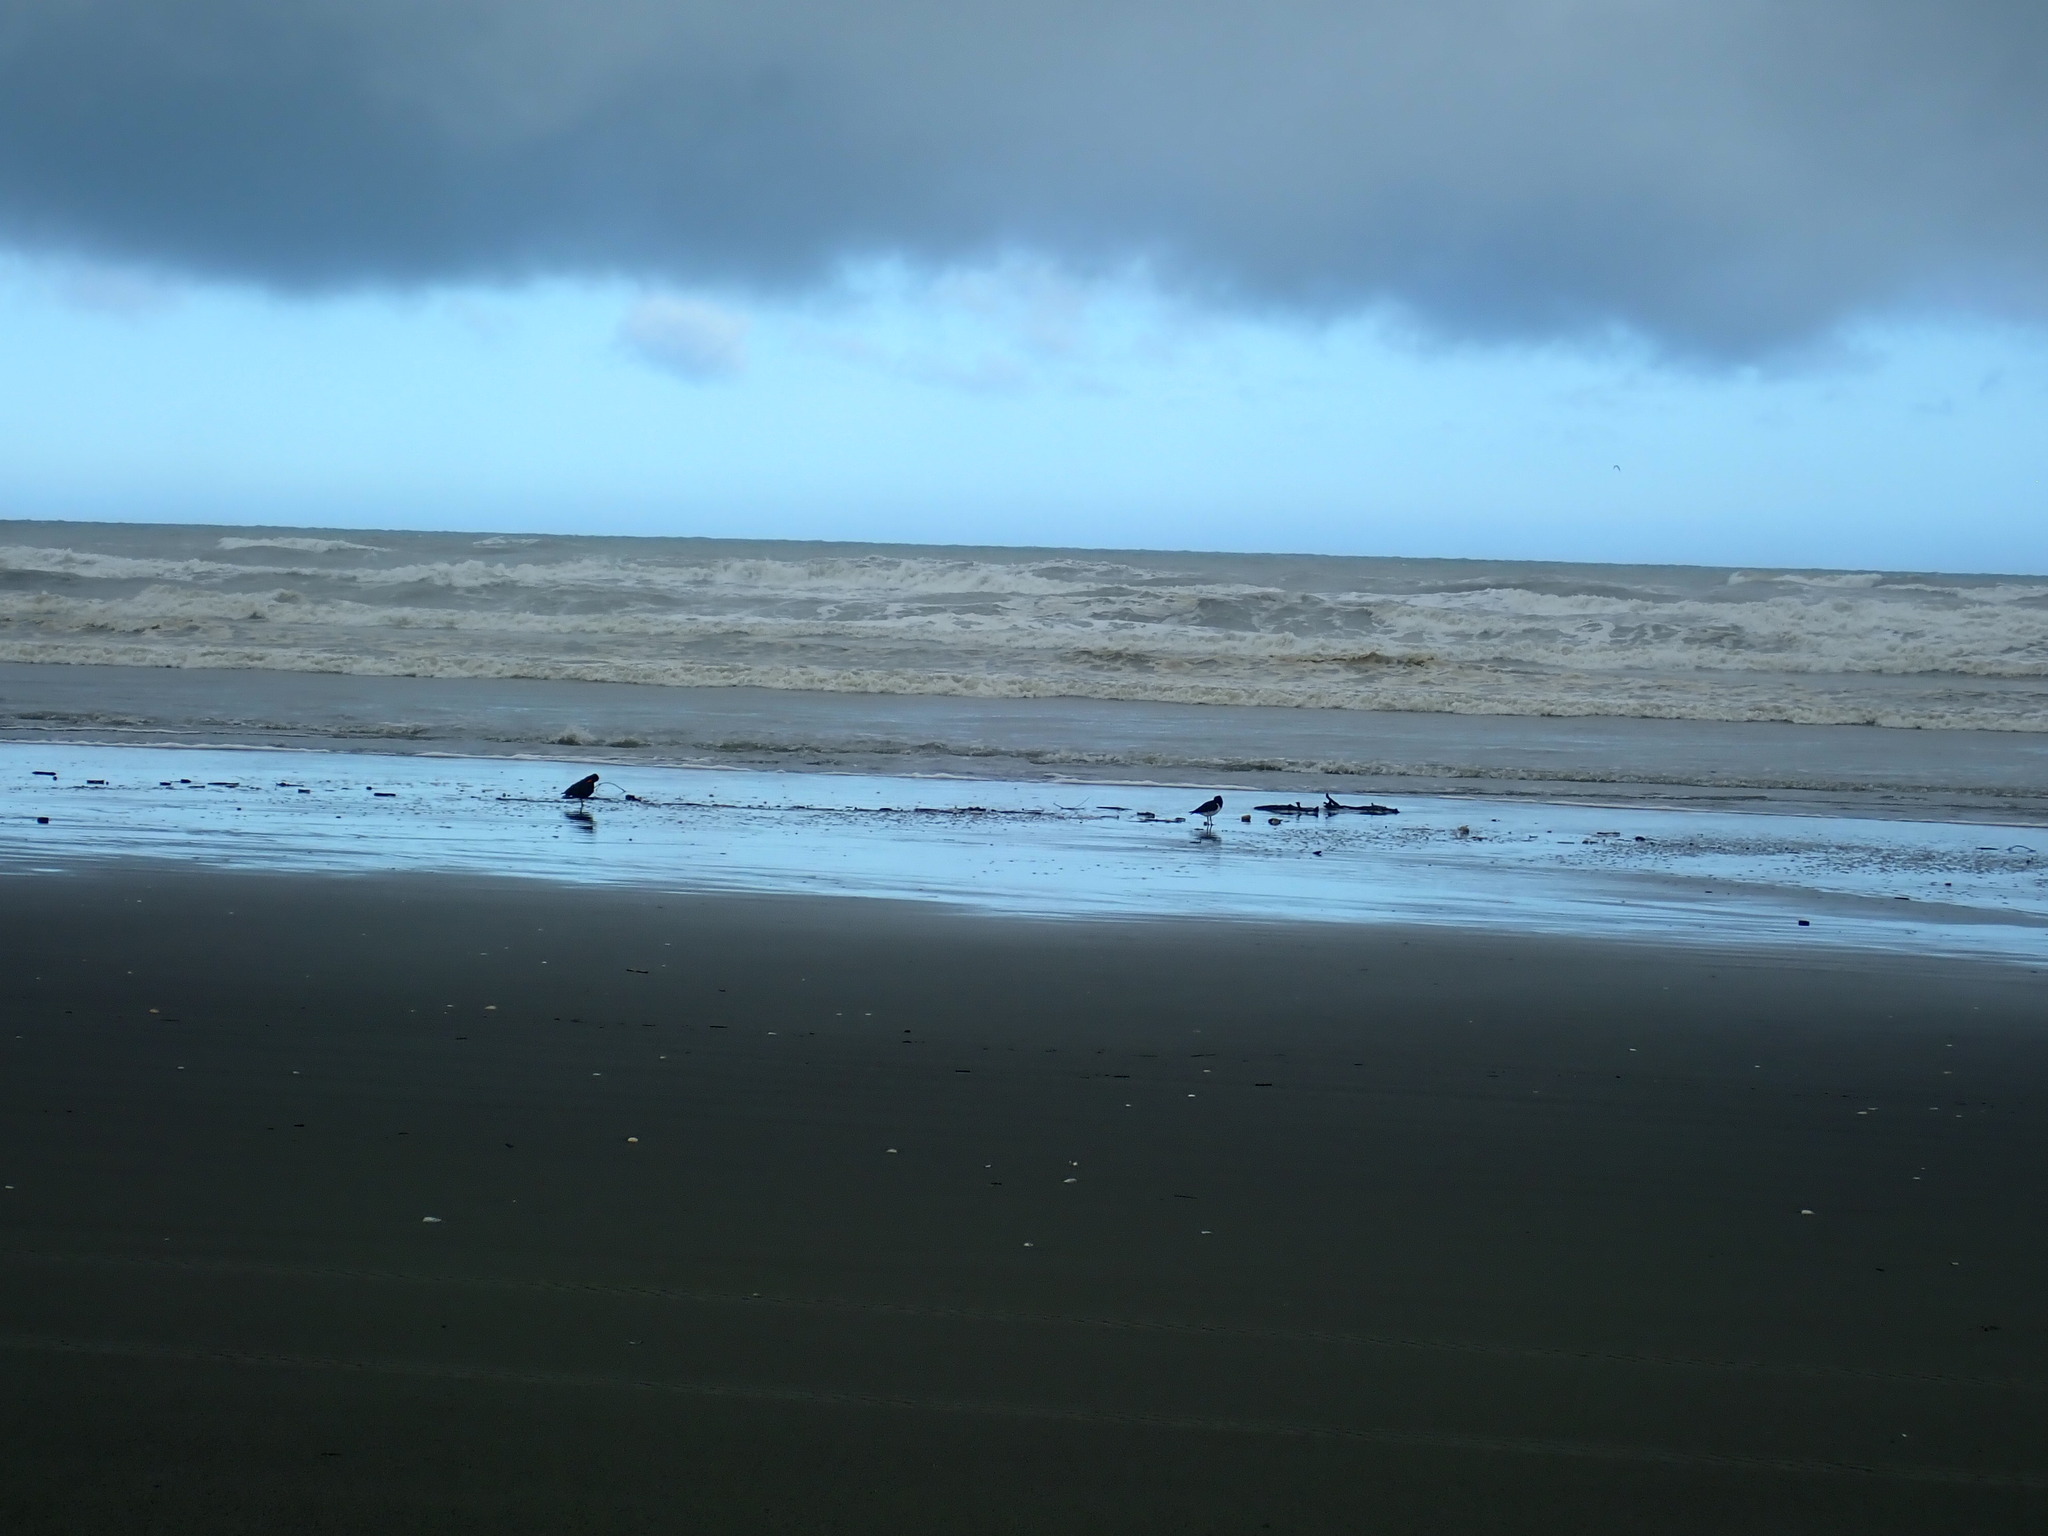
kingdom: Animalia
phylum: Chordata
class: Aves
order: Charadriiformes
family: Haematopodidae
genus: Haematopus
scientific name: Haematopus unicolor
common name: Variable oystercatcher
